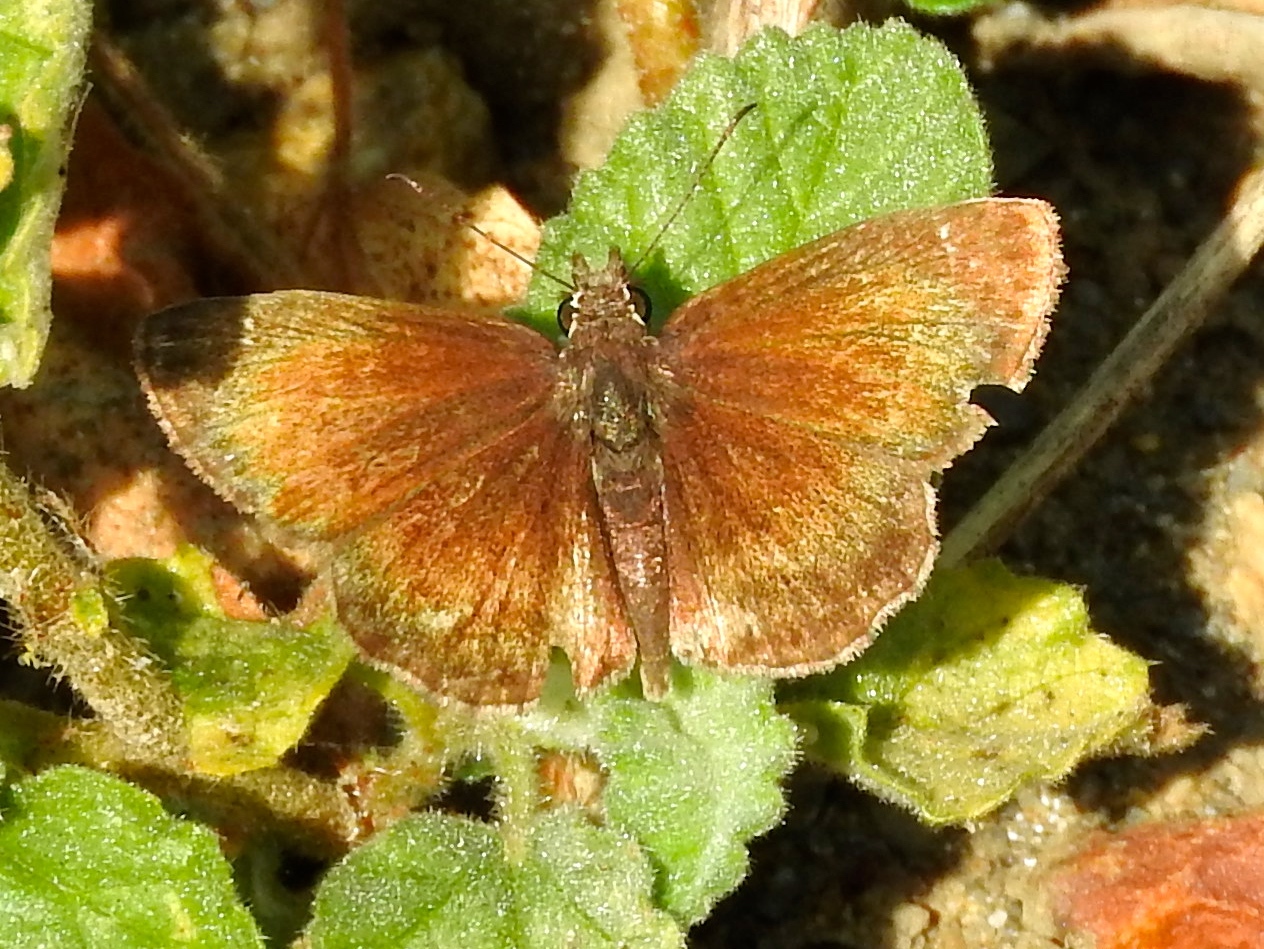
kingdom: Animalia
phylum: Arthropoda
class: Insecta
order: Lepidoptera
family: Hesperiidae
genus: Zopyrion
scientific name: Zopyrion sandace
